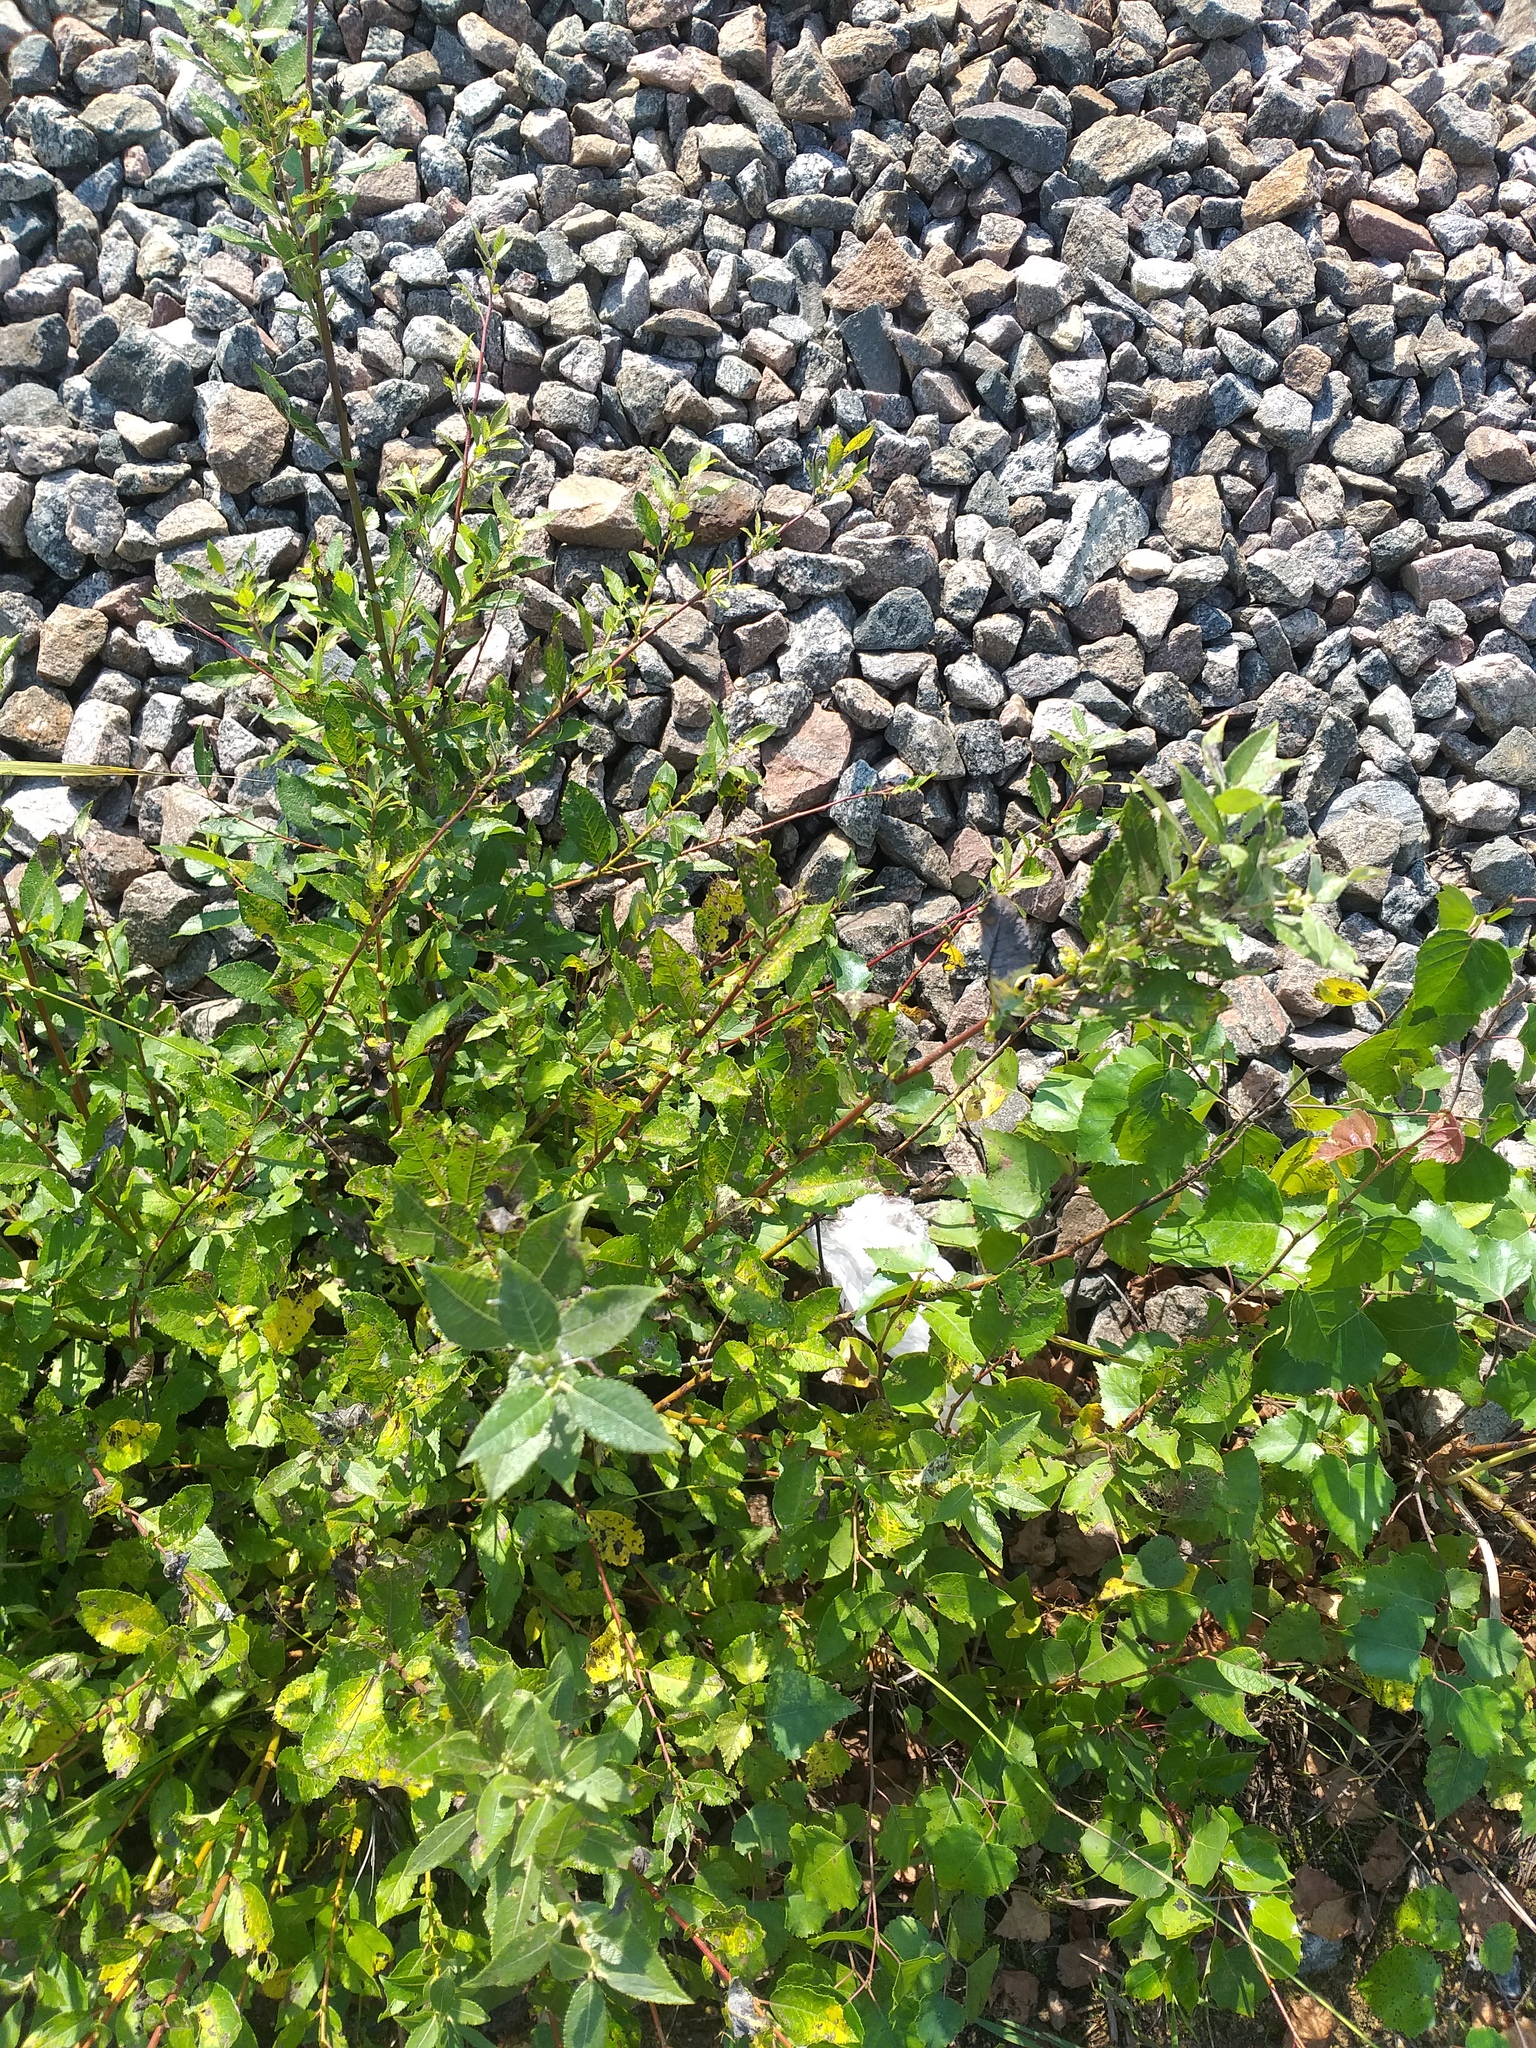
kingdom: Plantae
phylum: Tracheophyta
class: Magnoliopsida
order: Malpighiales
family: Salicaceae
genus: Salix
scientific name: Salix myrsinifolia
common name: Dark-leaved willow
